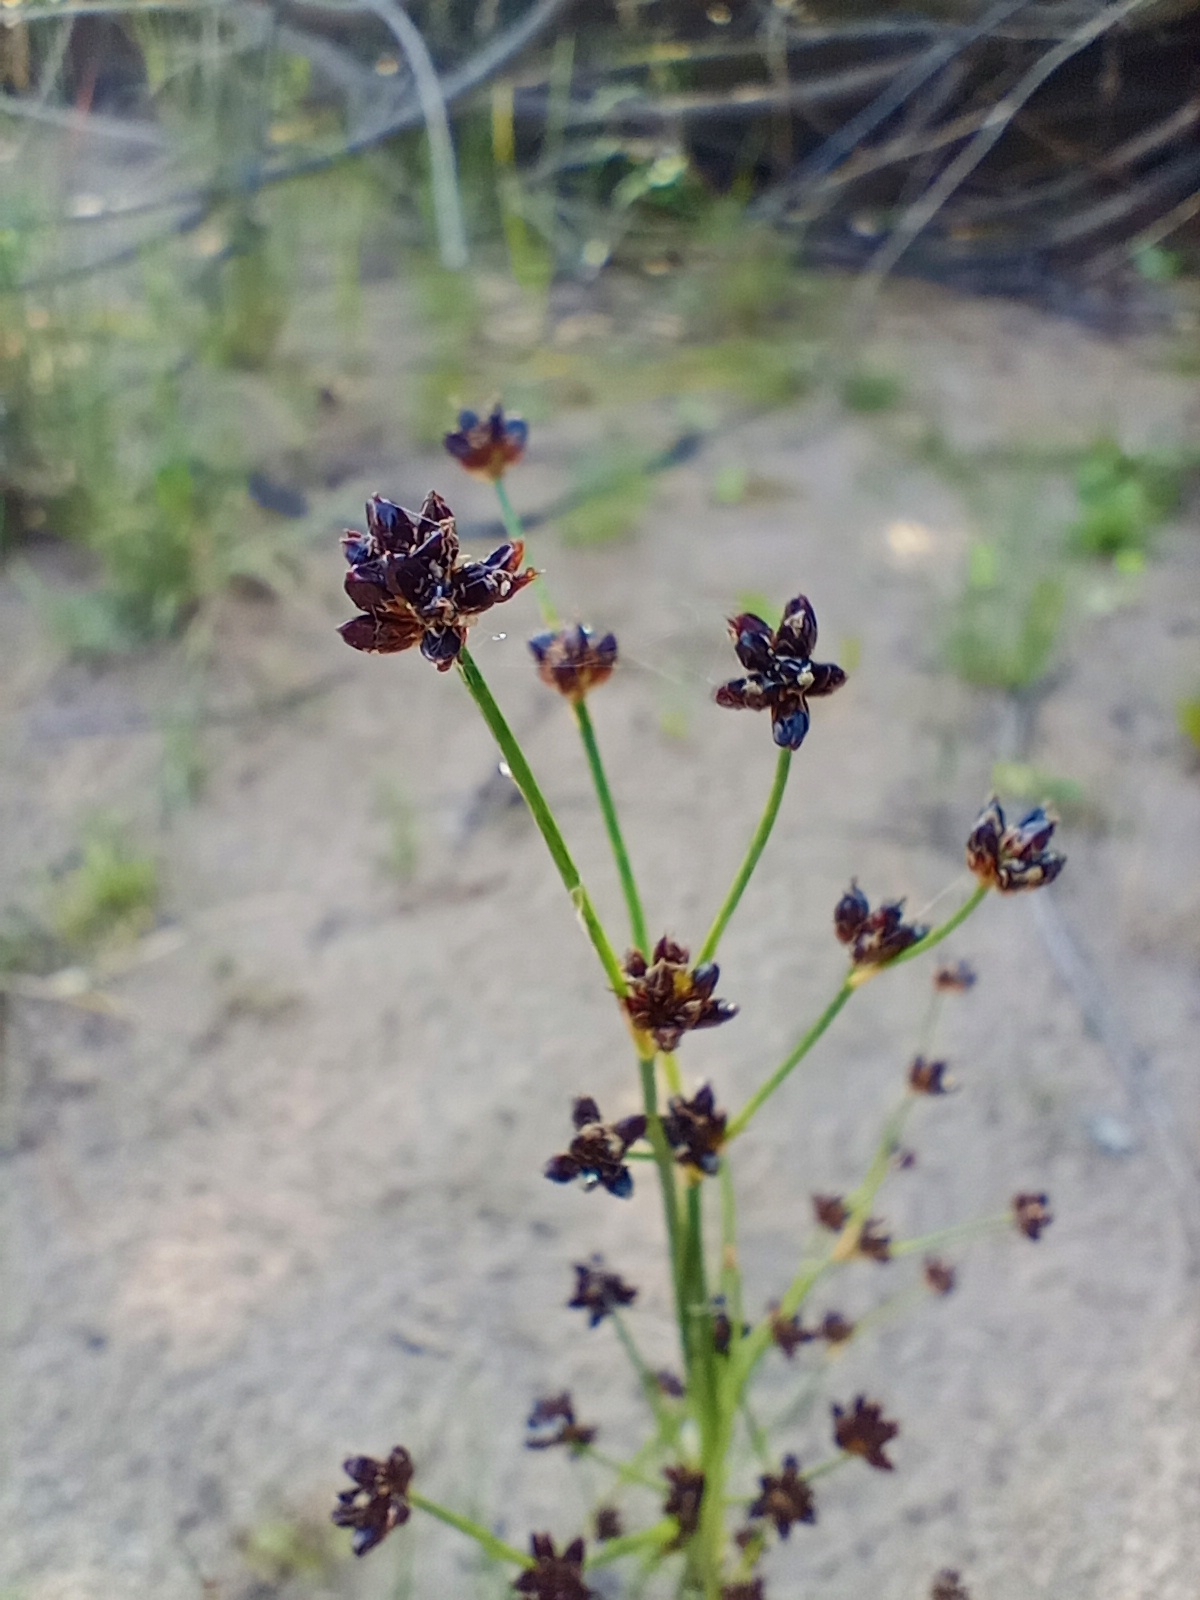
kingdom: Plantae
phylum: Tracheophyta
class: Liliopsida
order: Poales
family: Juncaceae
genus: Juncus
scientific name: Juncus alpinoarticulatus
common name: Alpine rush
